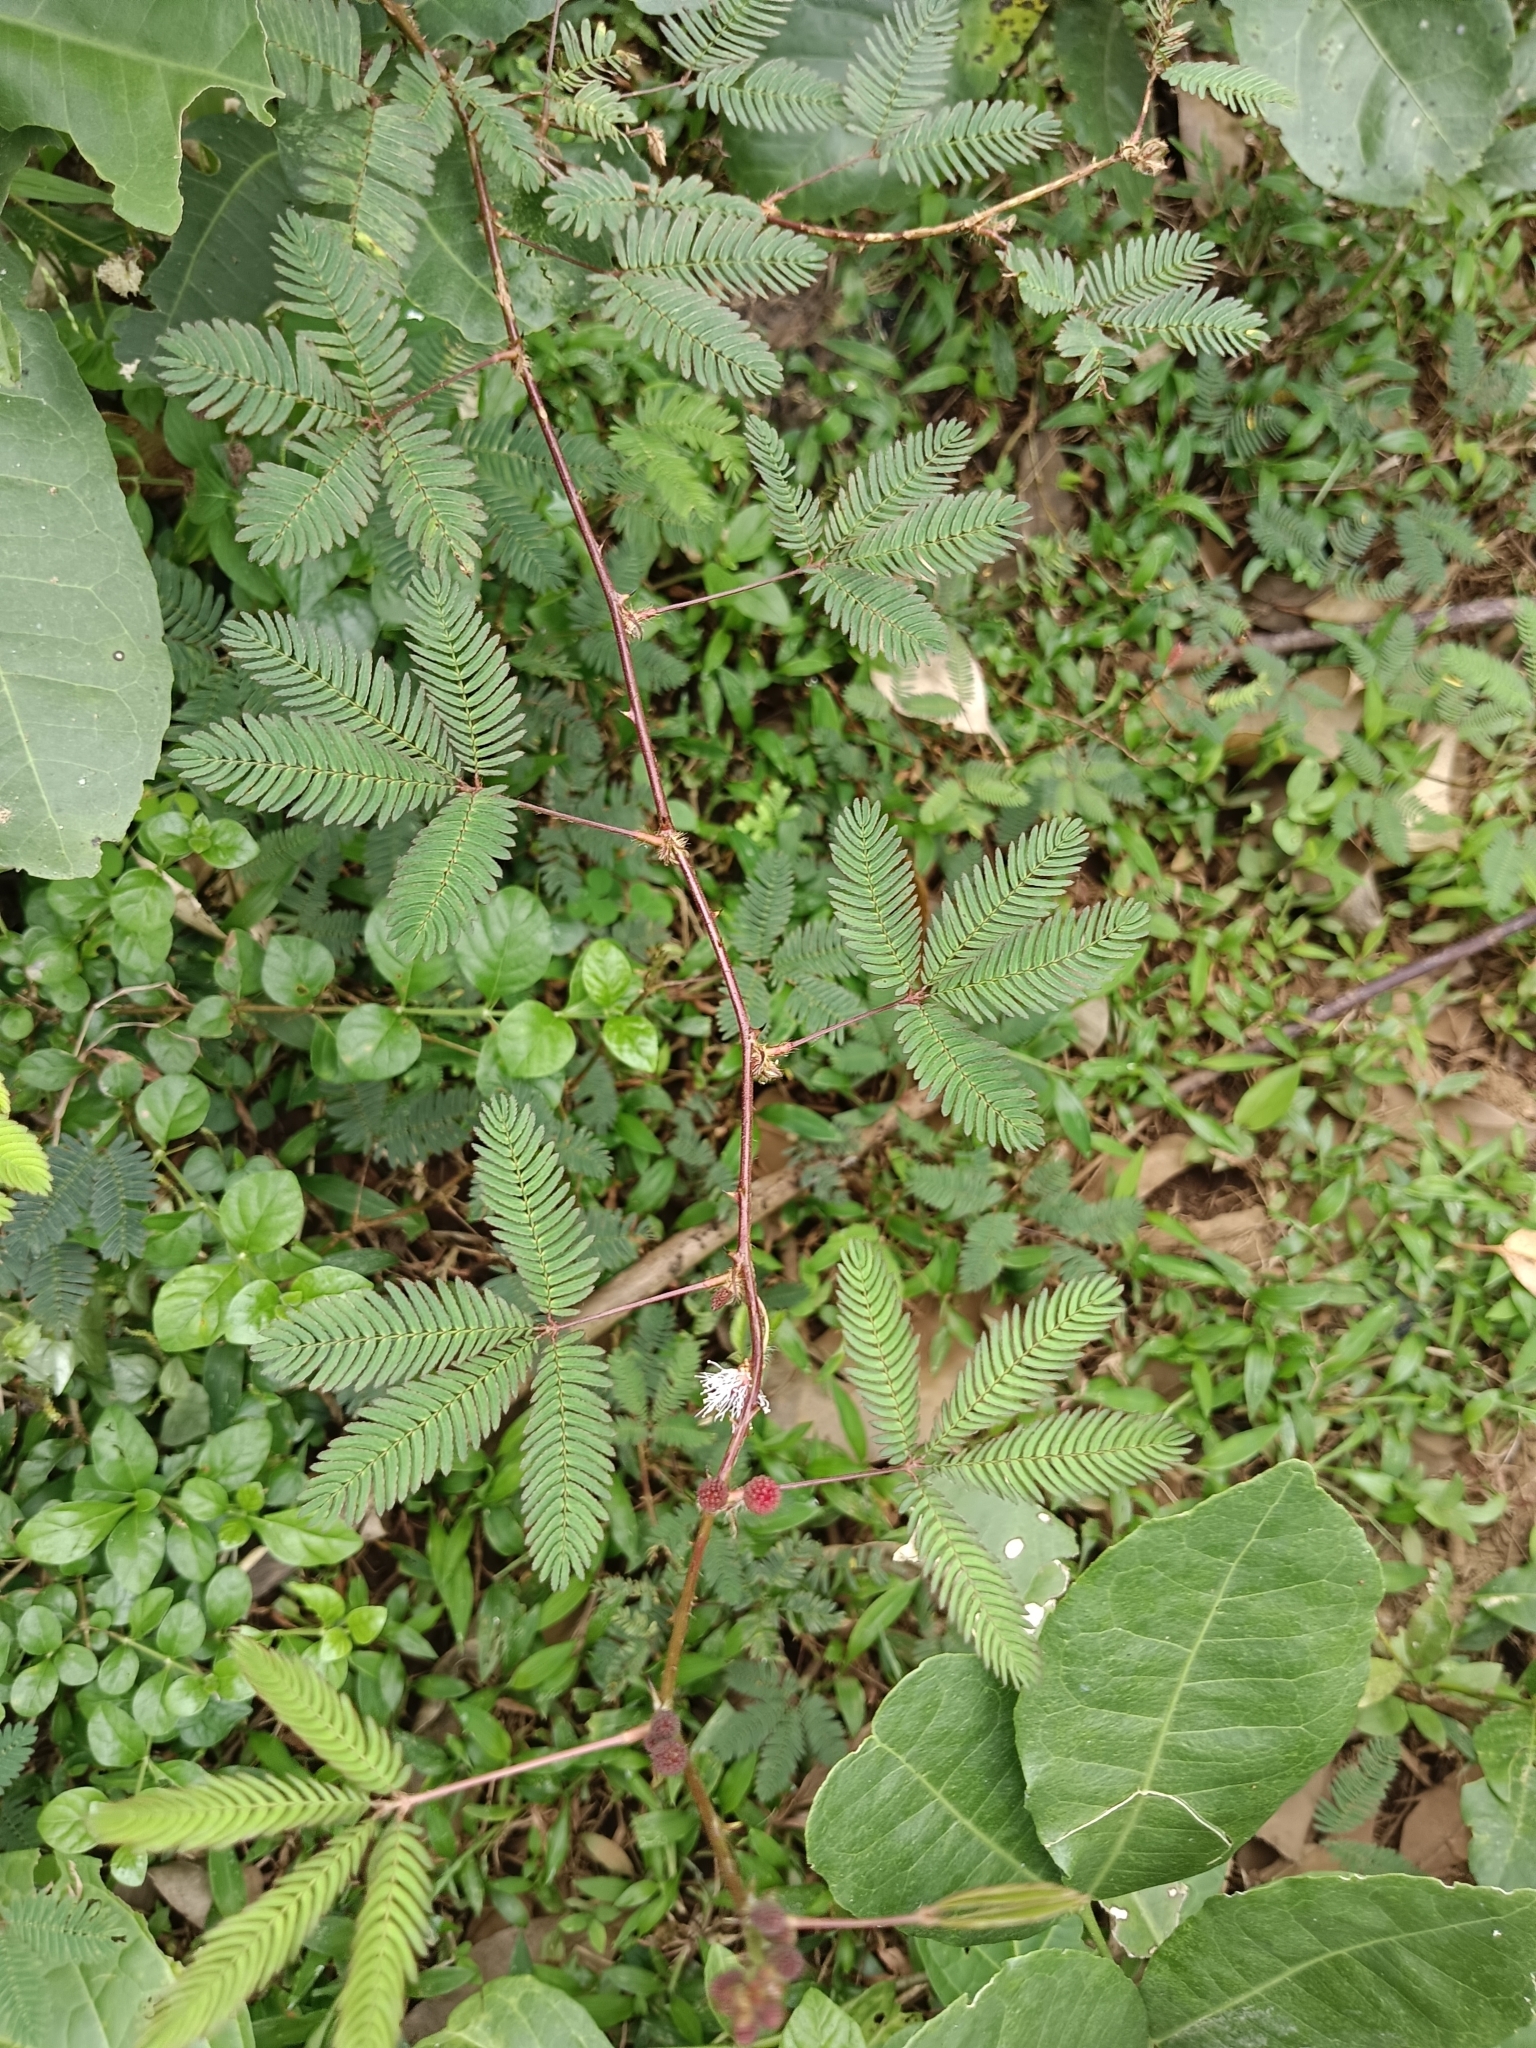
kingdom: Plantae
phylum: Tracheophyta
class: Magnoliopsida
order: Fabales
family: Fabaceae
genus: Mimosa
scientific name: Mimosa pudica
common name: Sensitive plant
